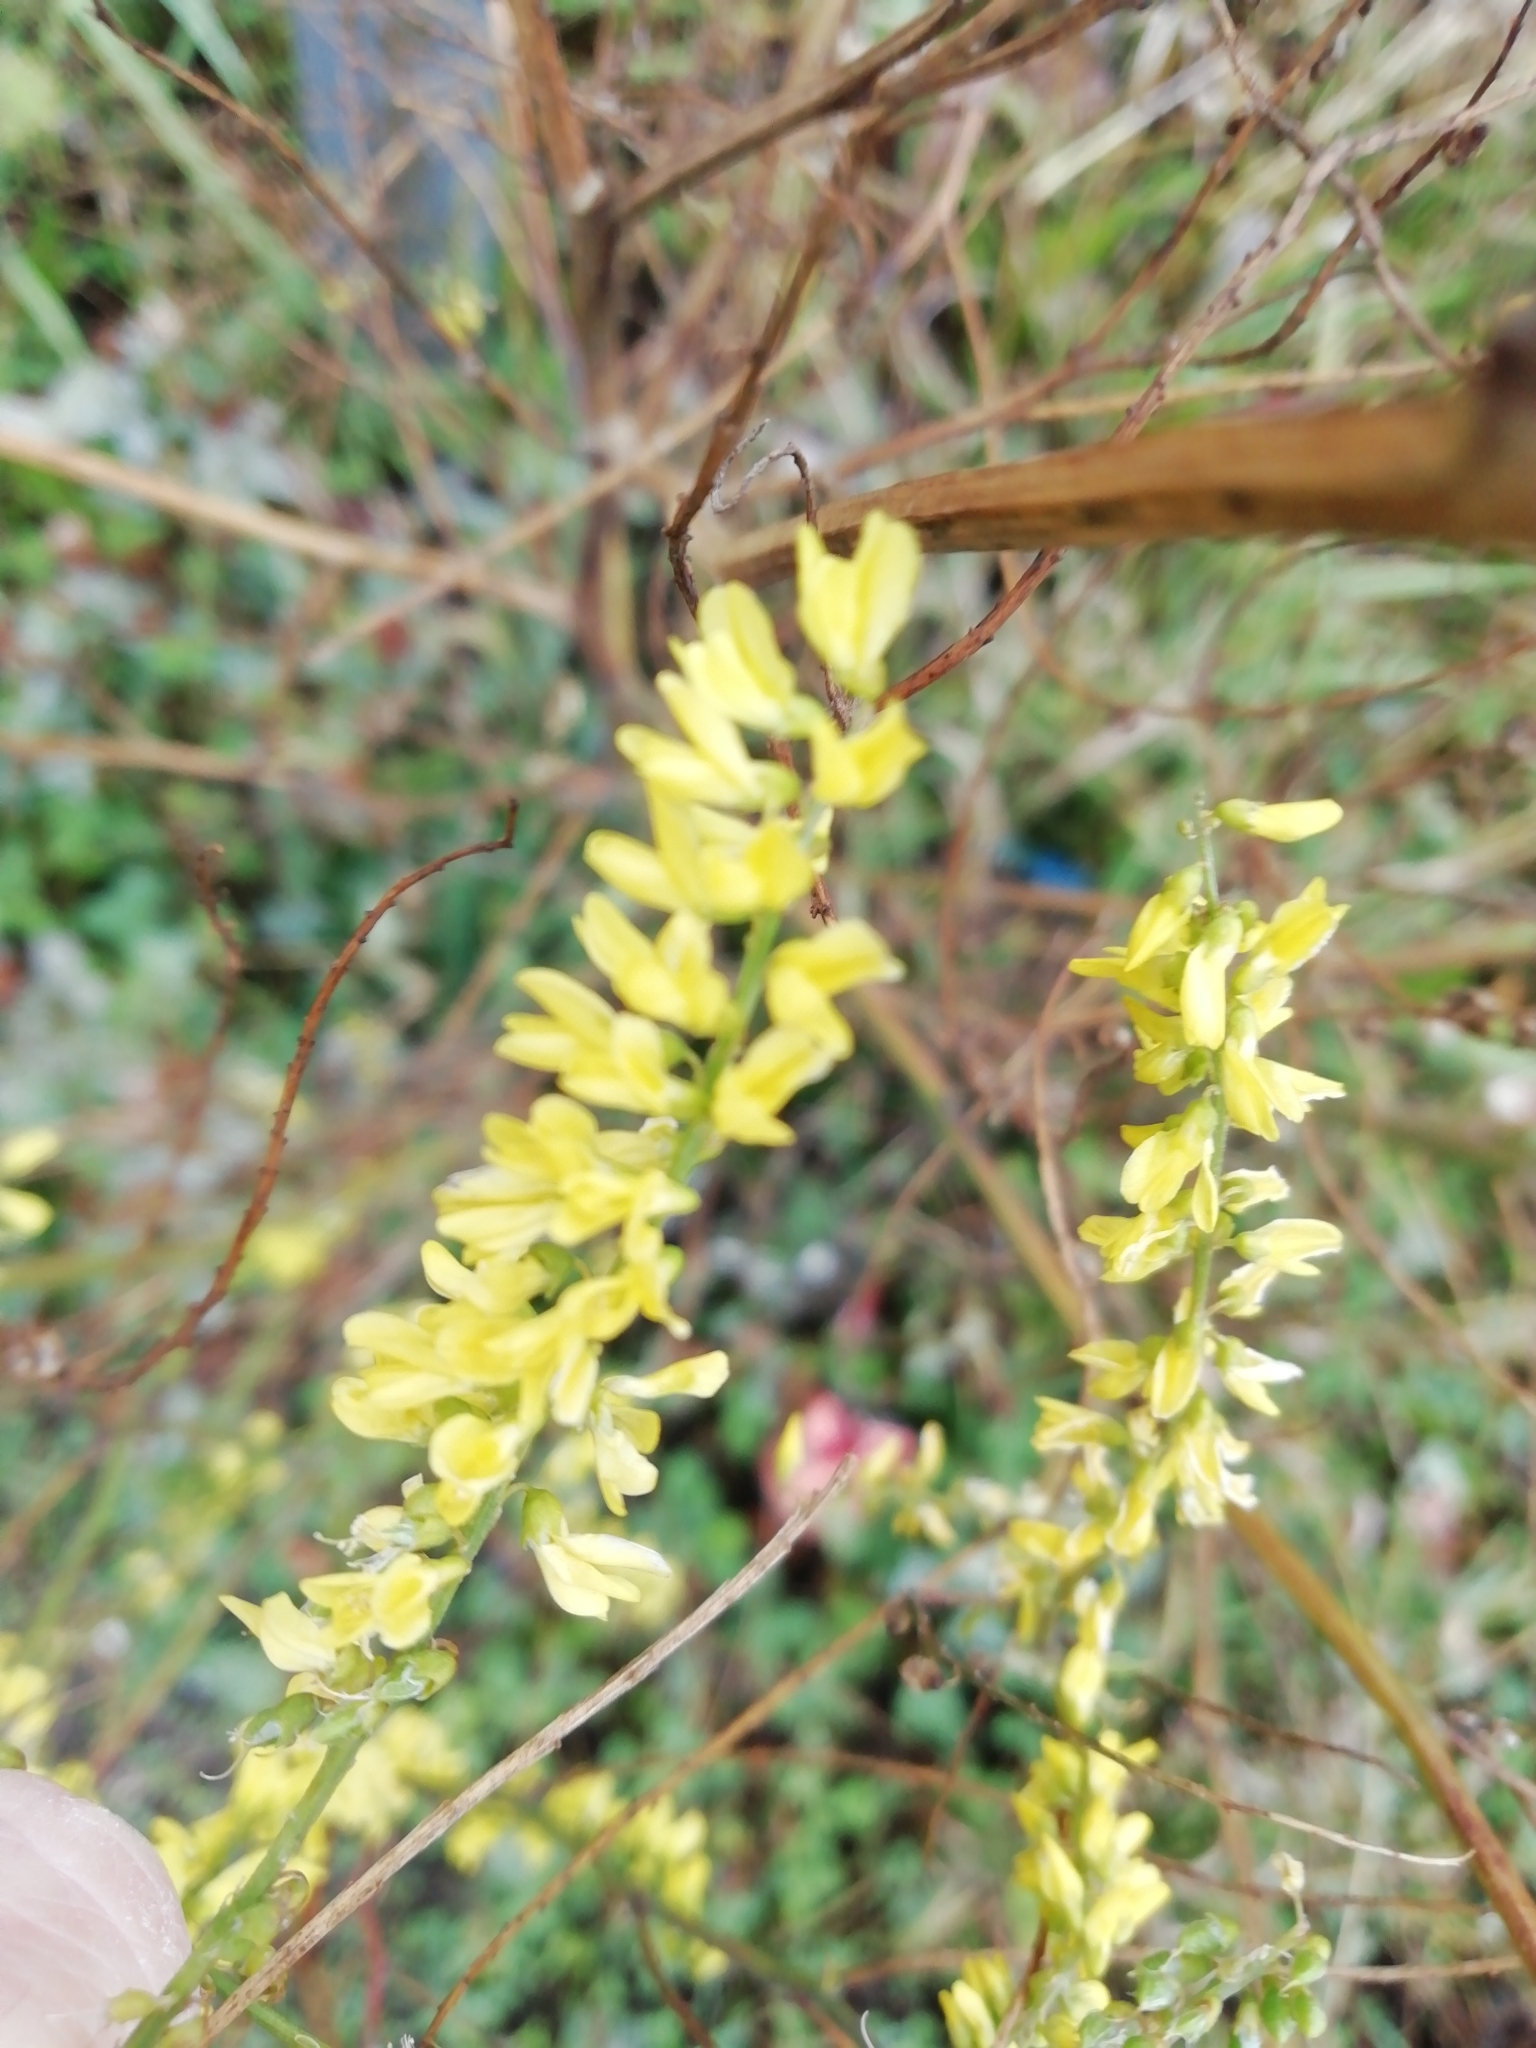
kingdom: Plantae
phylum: Tracheophyta
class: Magnoliopsida
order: Fabales
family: Fabaceae
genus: Melilotus
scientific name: Melilotus officinalis
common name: Sweetclover
